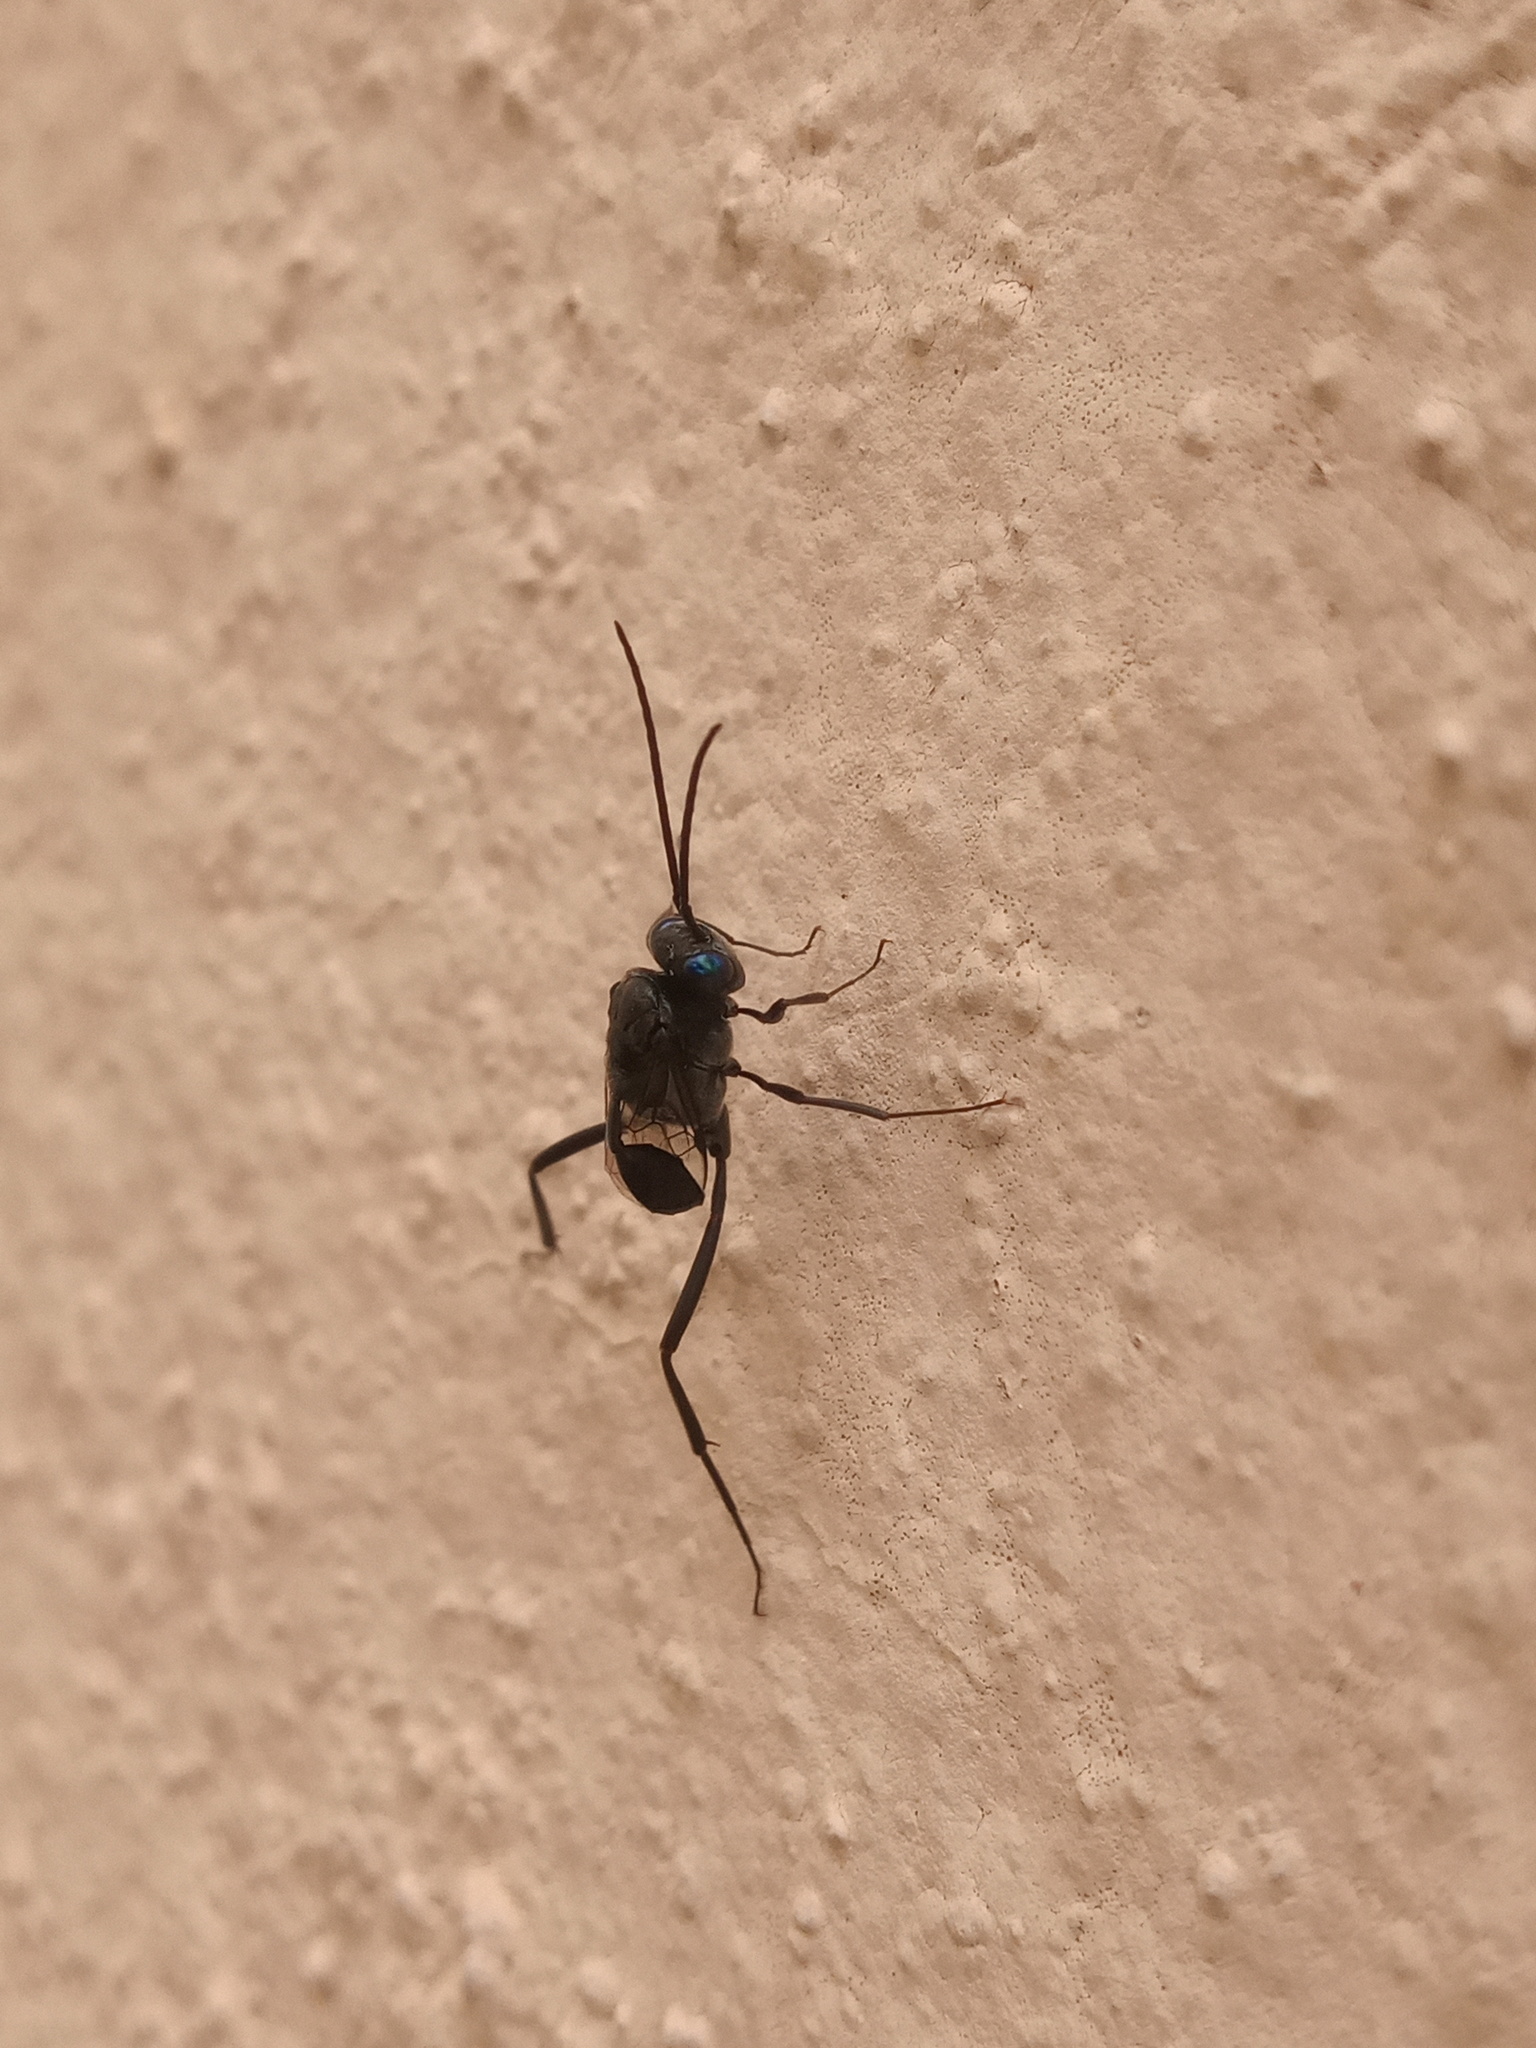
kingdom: Animalia
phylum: Arthropoda
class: Insecta
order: Hymenoptera
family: Evaniidae
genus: Evania
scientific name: Evania appendigaster
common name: Ensign wasp
